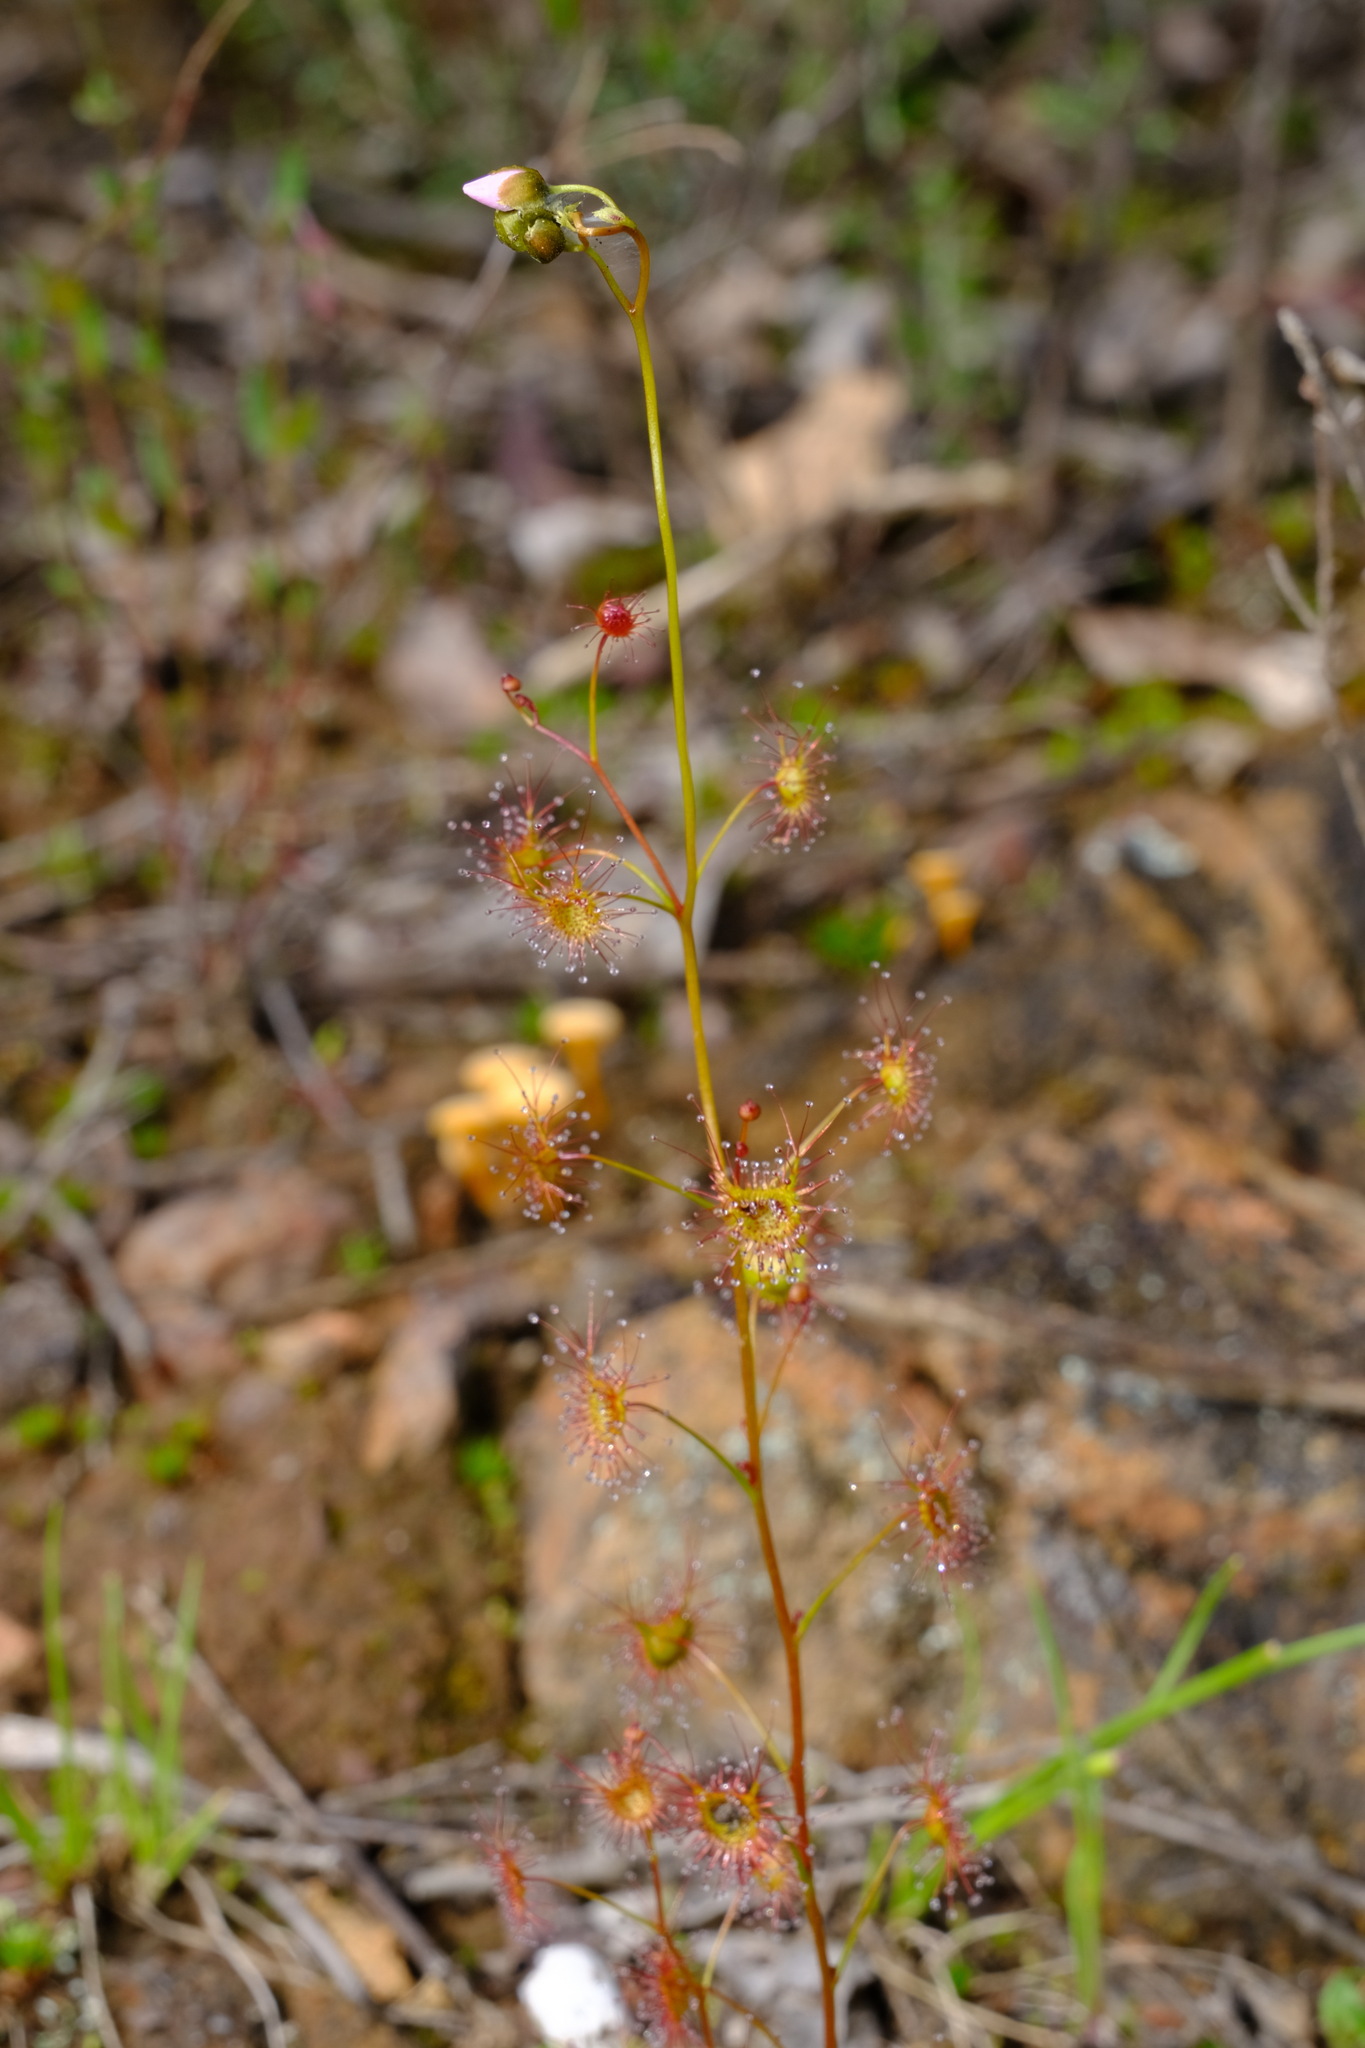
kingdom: Plantae
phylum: Tracheophyta
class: Magnoliopsida
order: Caryophyllales
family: Droseraceae
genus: Drosera
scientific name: Drosera peltata
